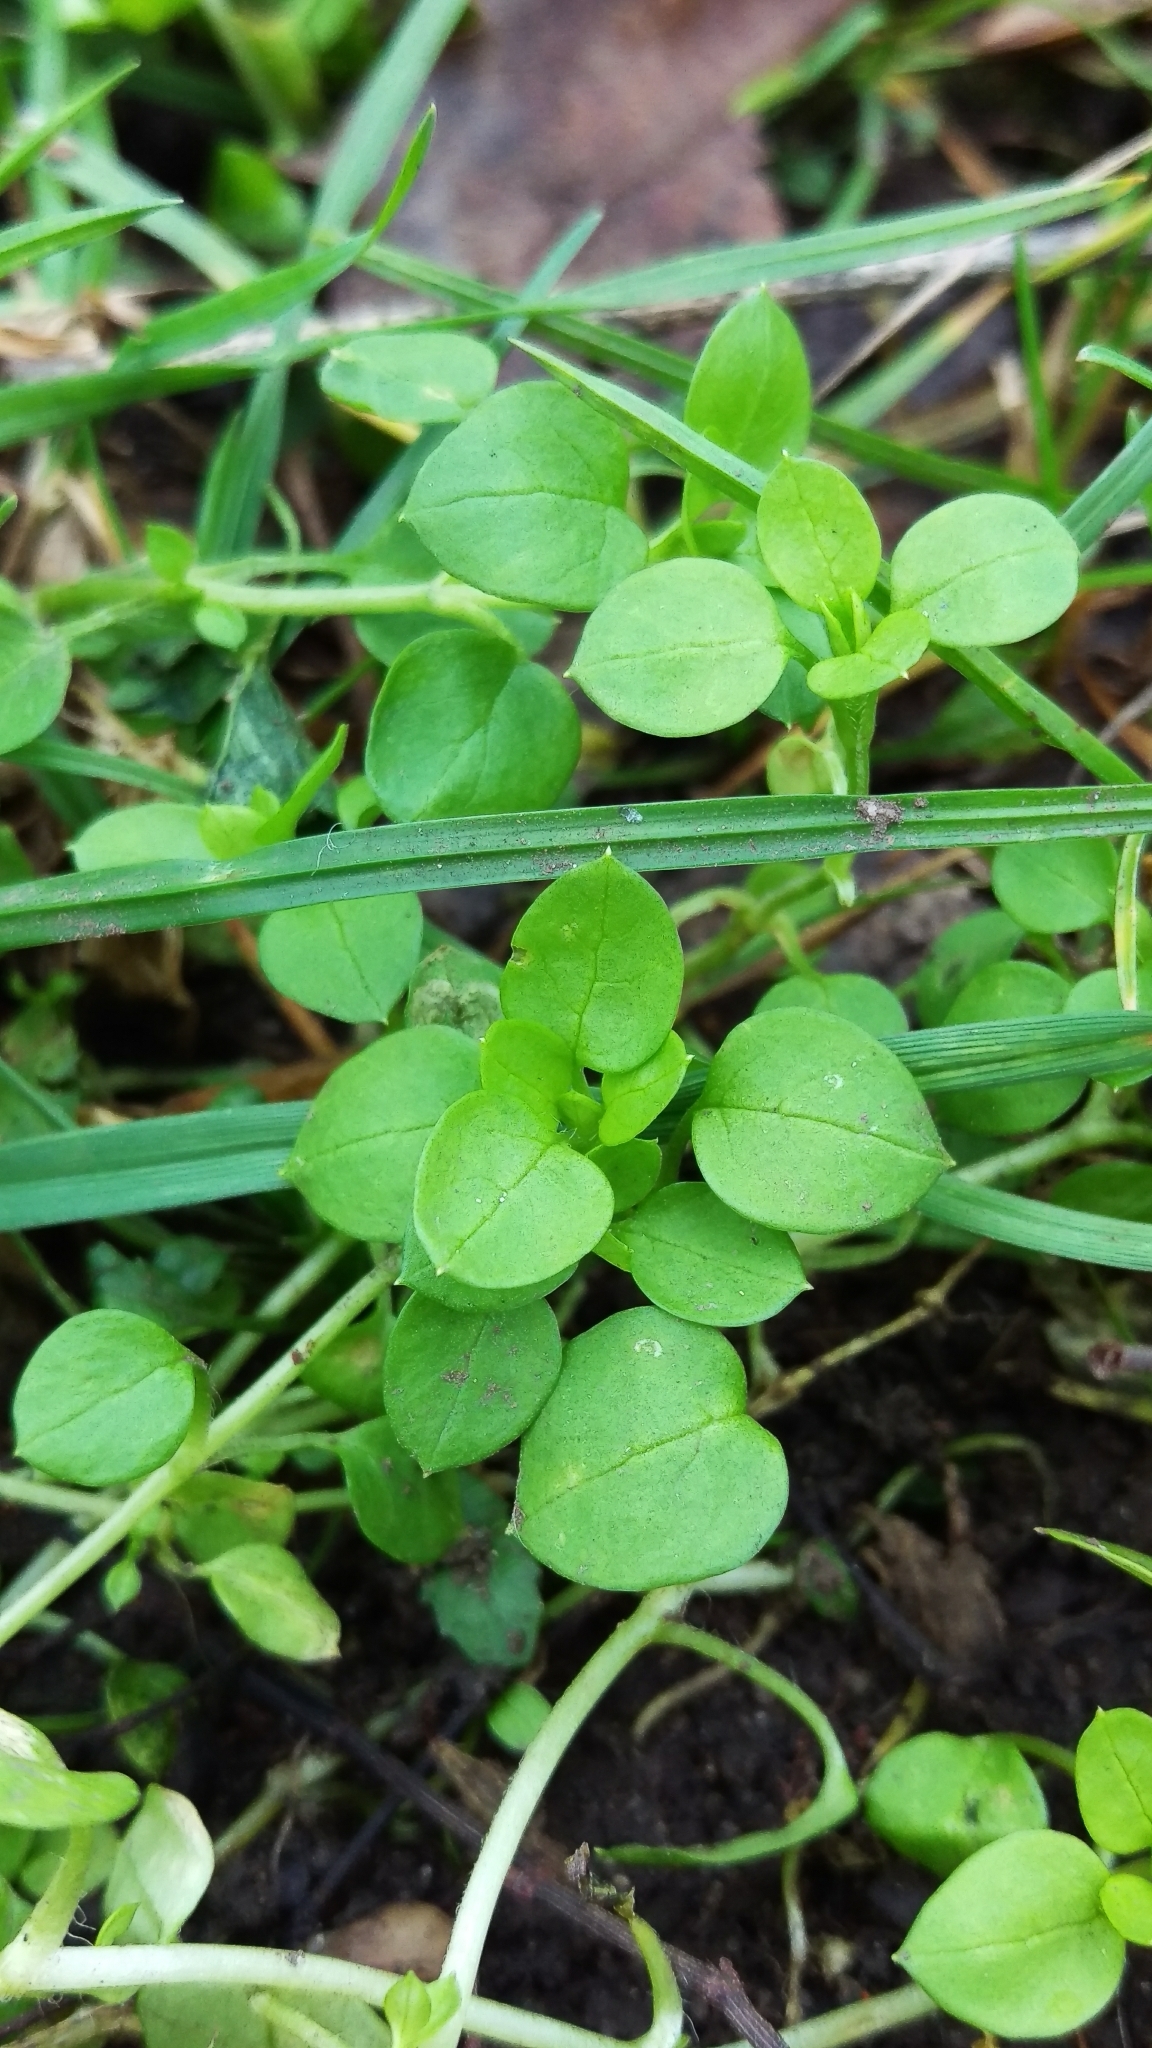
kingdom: Plantae
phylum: Tracheophyta
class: Magnoliopsida
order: Caryophyllales
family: Caryophyllaceae
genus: Stellaria
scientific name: Stellaria media
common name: Common chickweed
